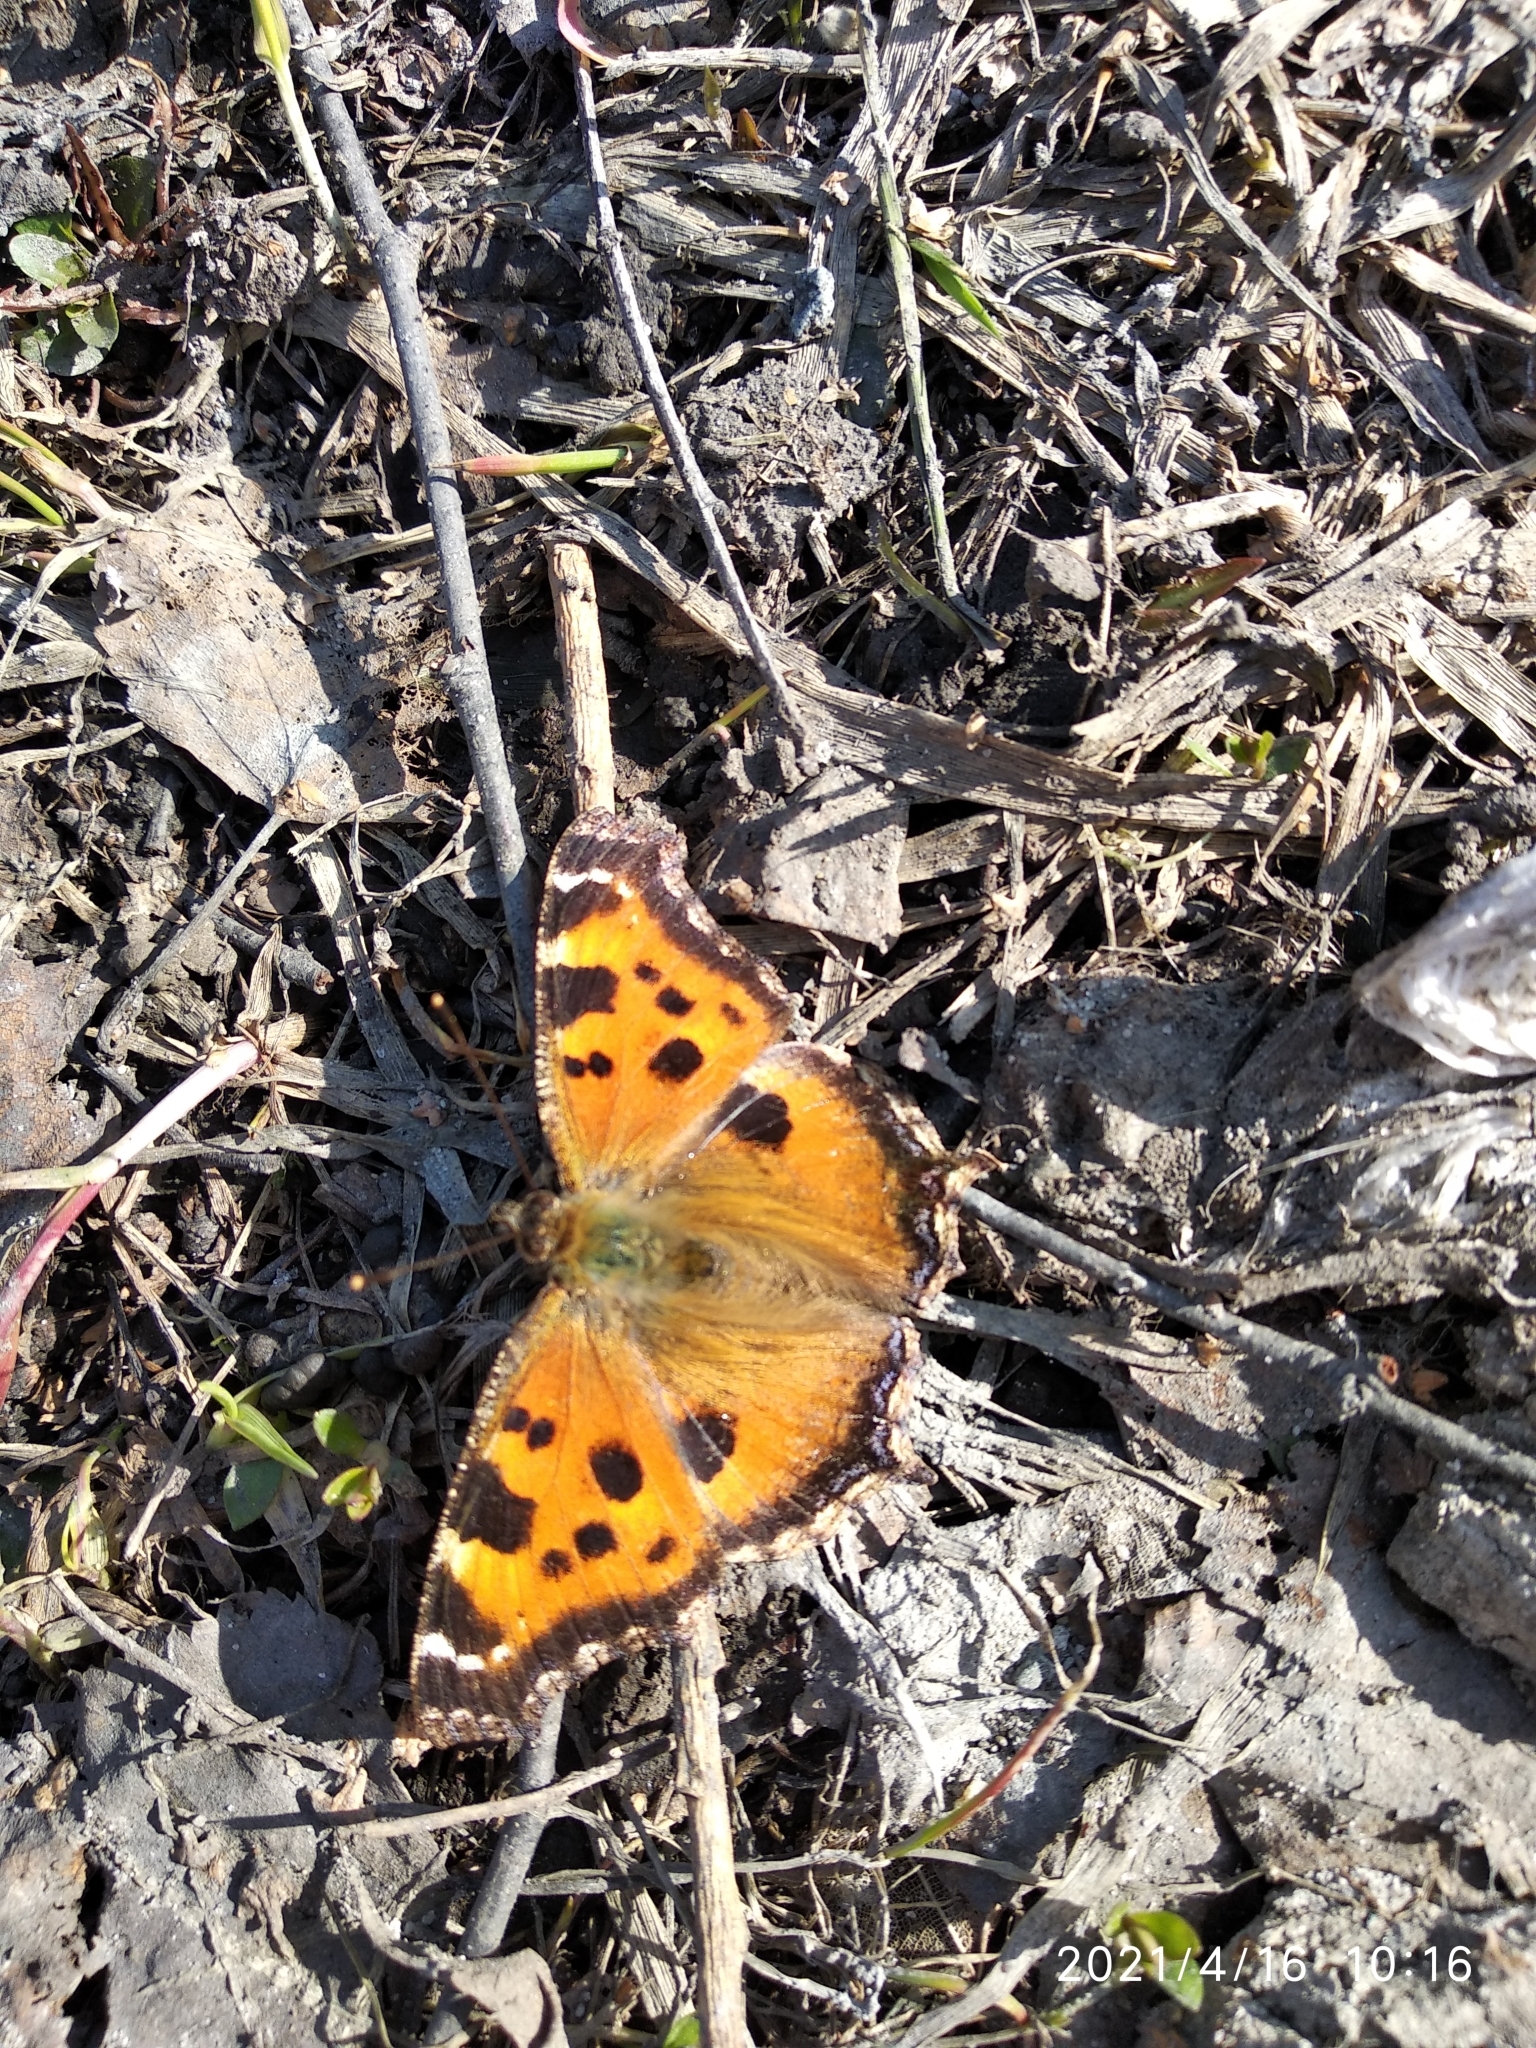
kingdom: Animalia
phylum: Arthropoda
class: Insecta
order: Lepidoptera
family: Nymphalidae
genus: Nymphalis
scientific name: Nymphalis xanthomelas
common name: Scarce tortoiseshell
